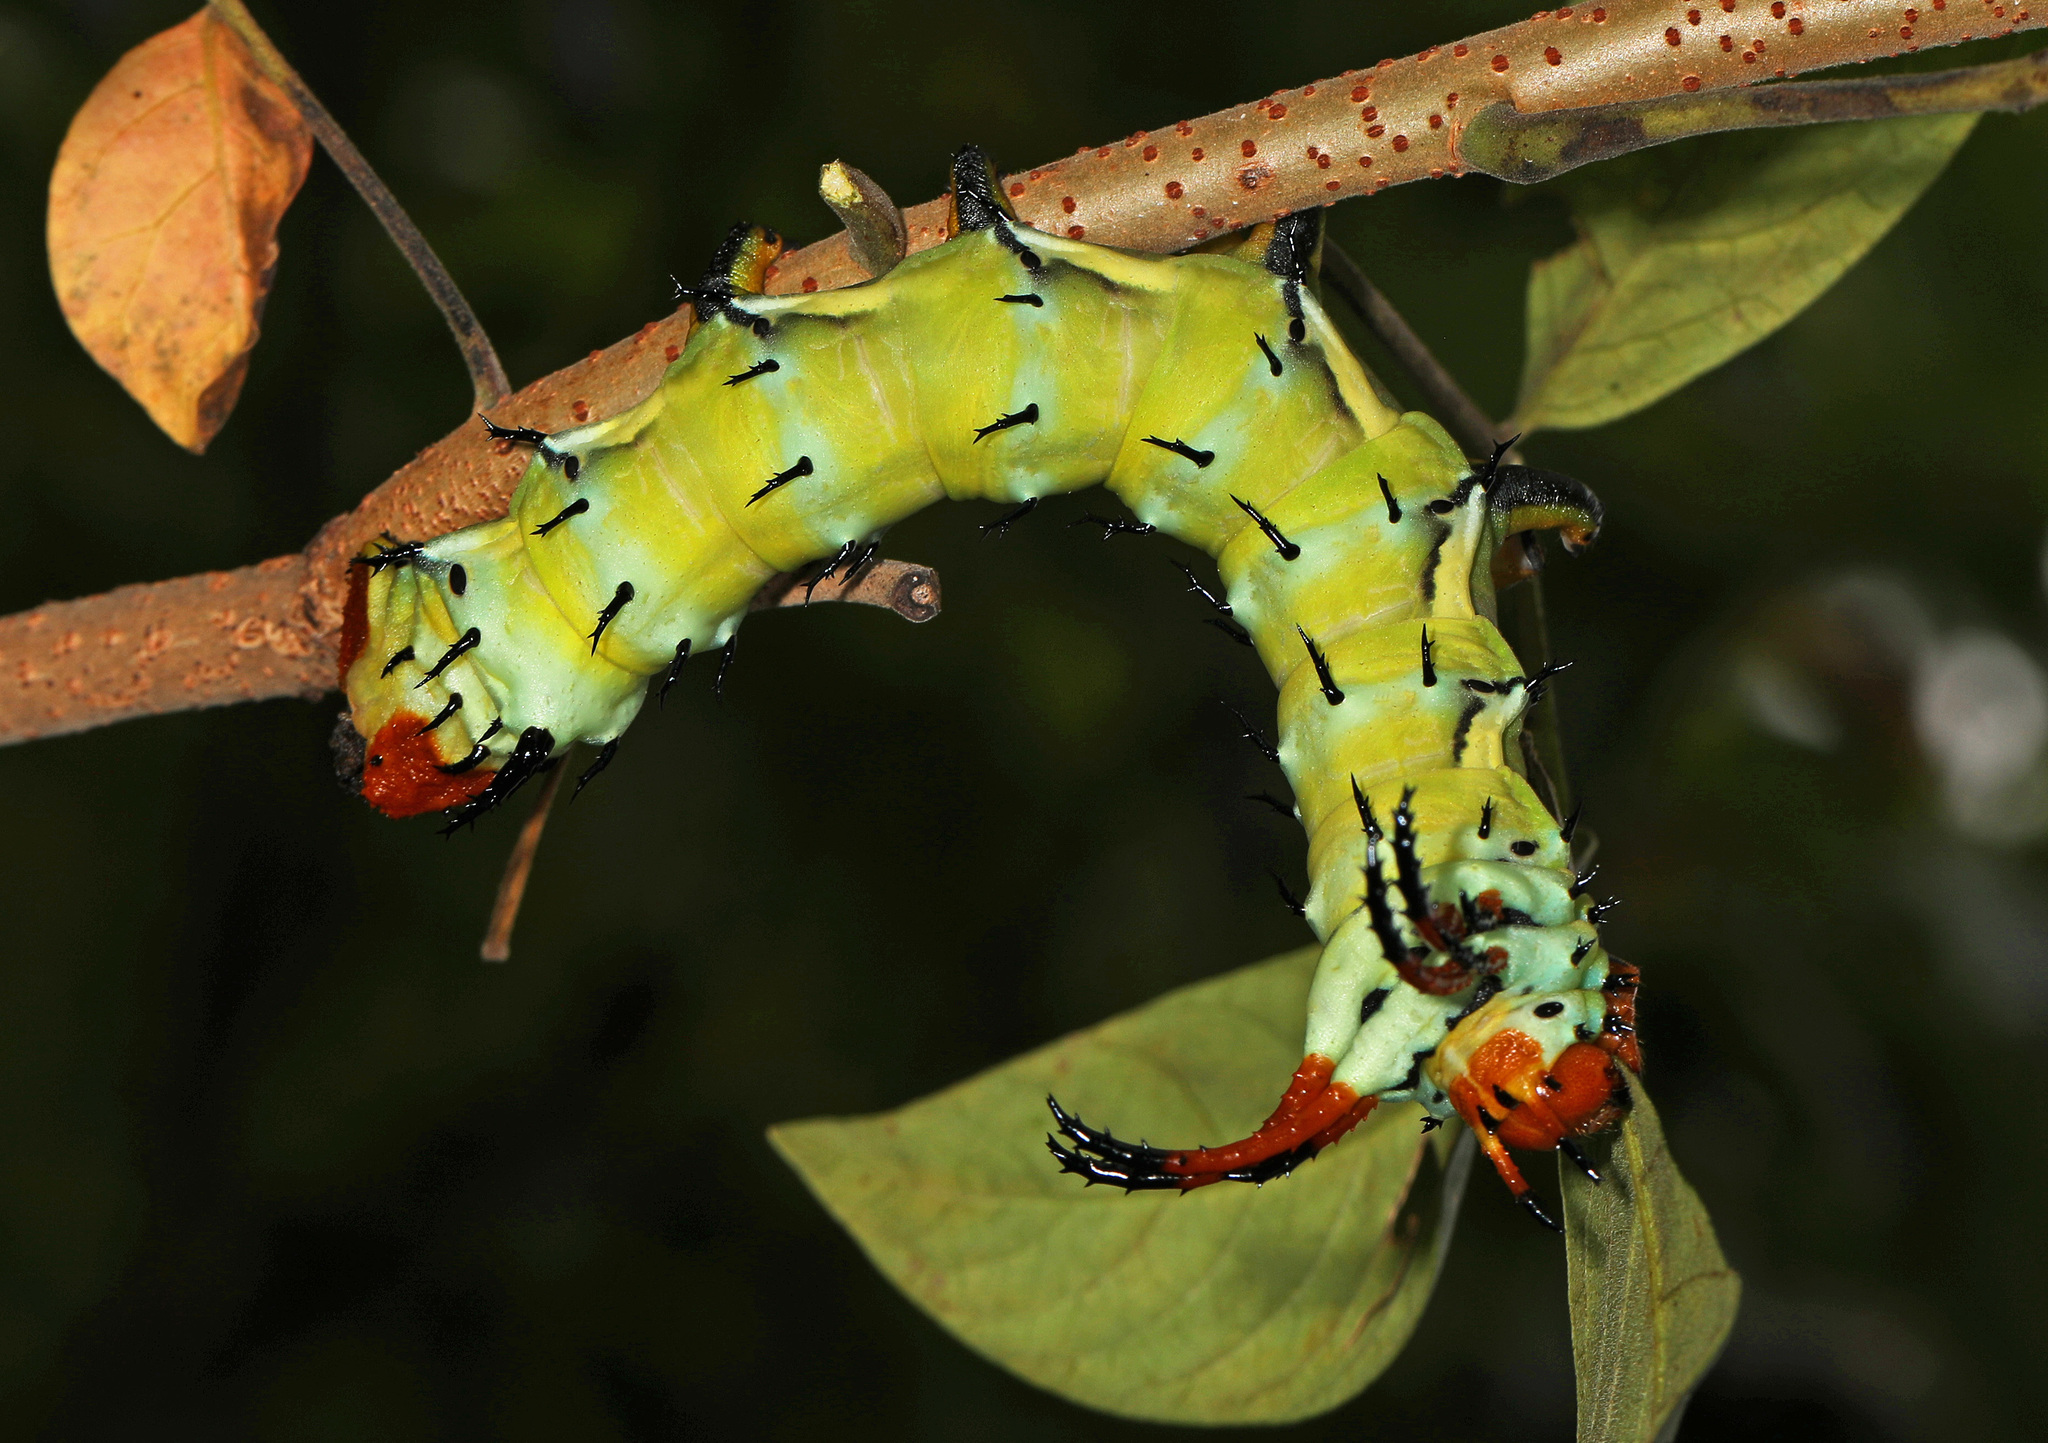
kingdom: Animalia
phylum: Arthropoda
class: Insecta
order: Lepidoptera
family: Saturniidae
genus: Citheronia
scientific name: Citheronia regalis
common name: Hickory horned devil
